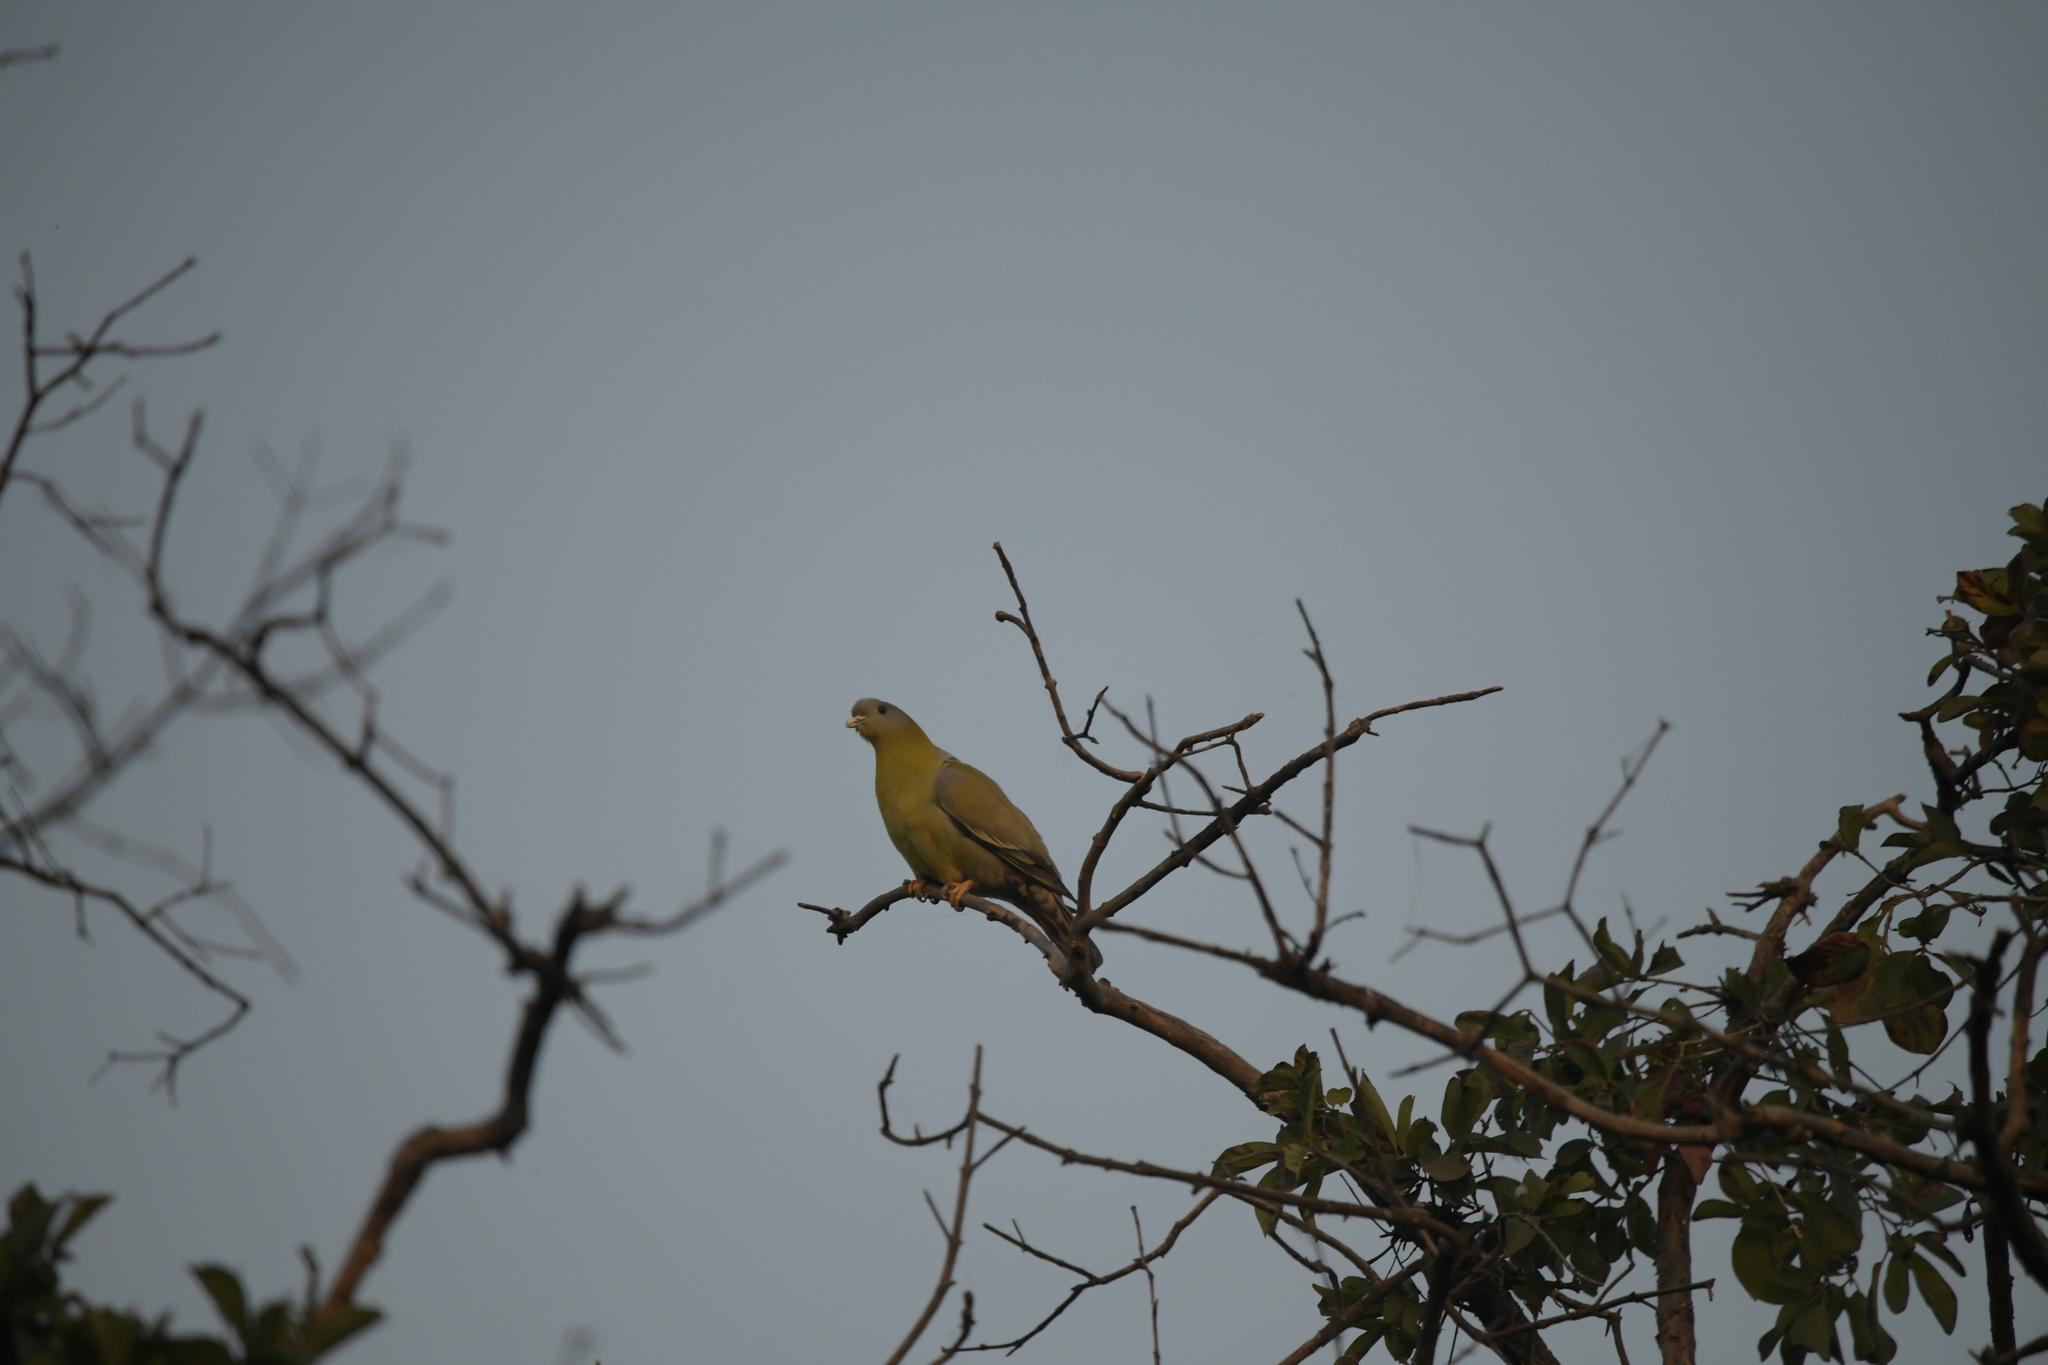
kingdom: Animalia
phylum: Chordata
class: Aves
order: Columbiformes
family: Columbidae
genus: Treron
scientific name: Treron phoenicopterus
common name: Yellow-footed green pigeon
